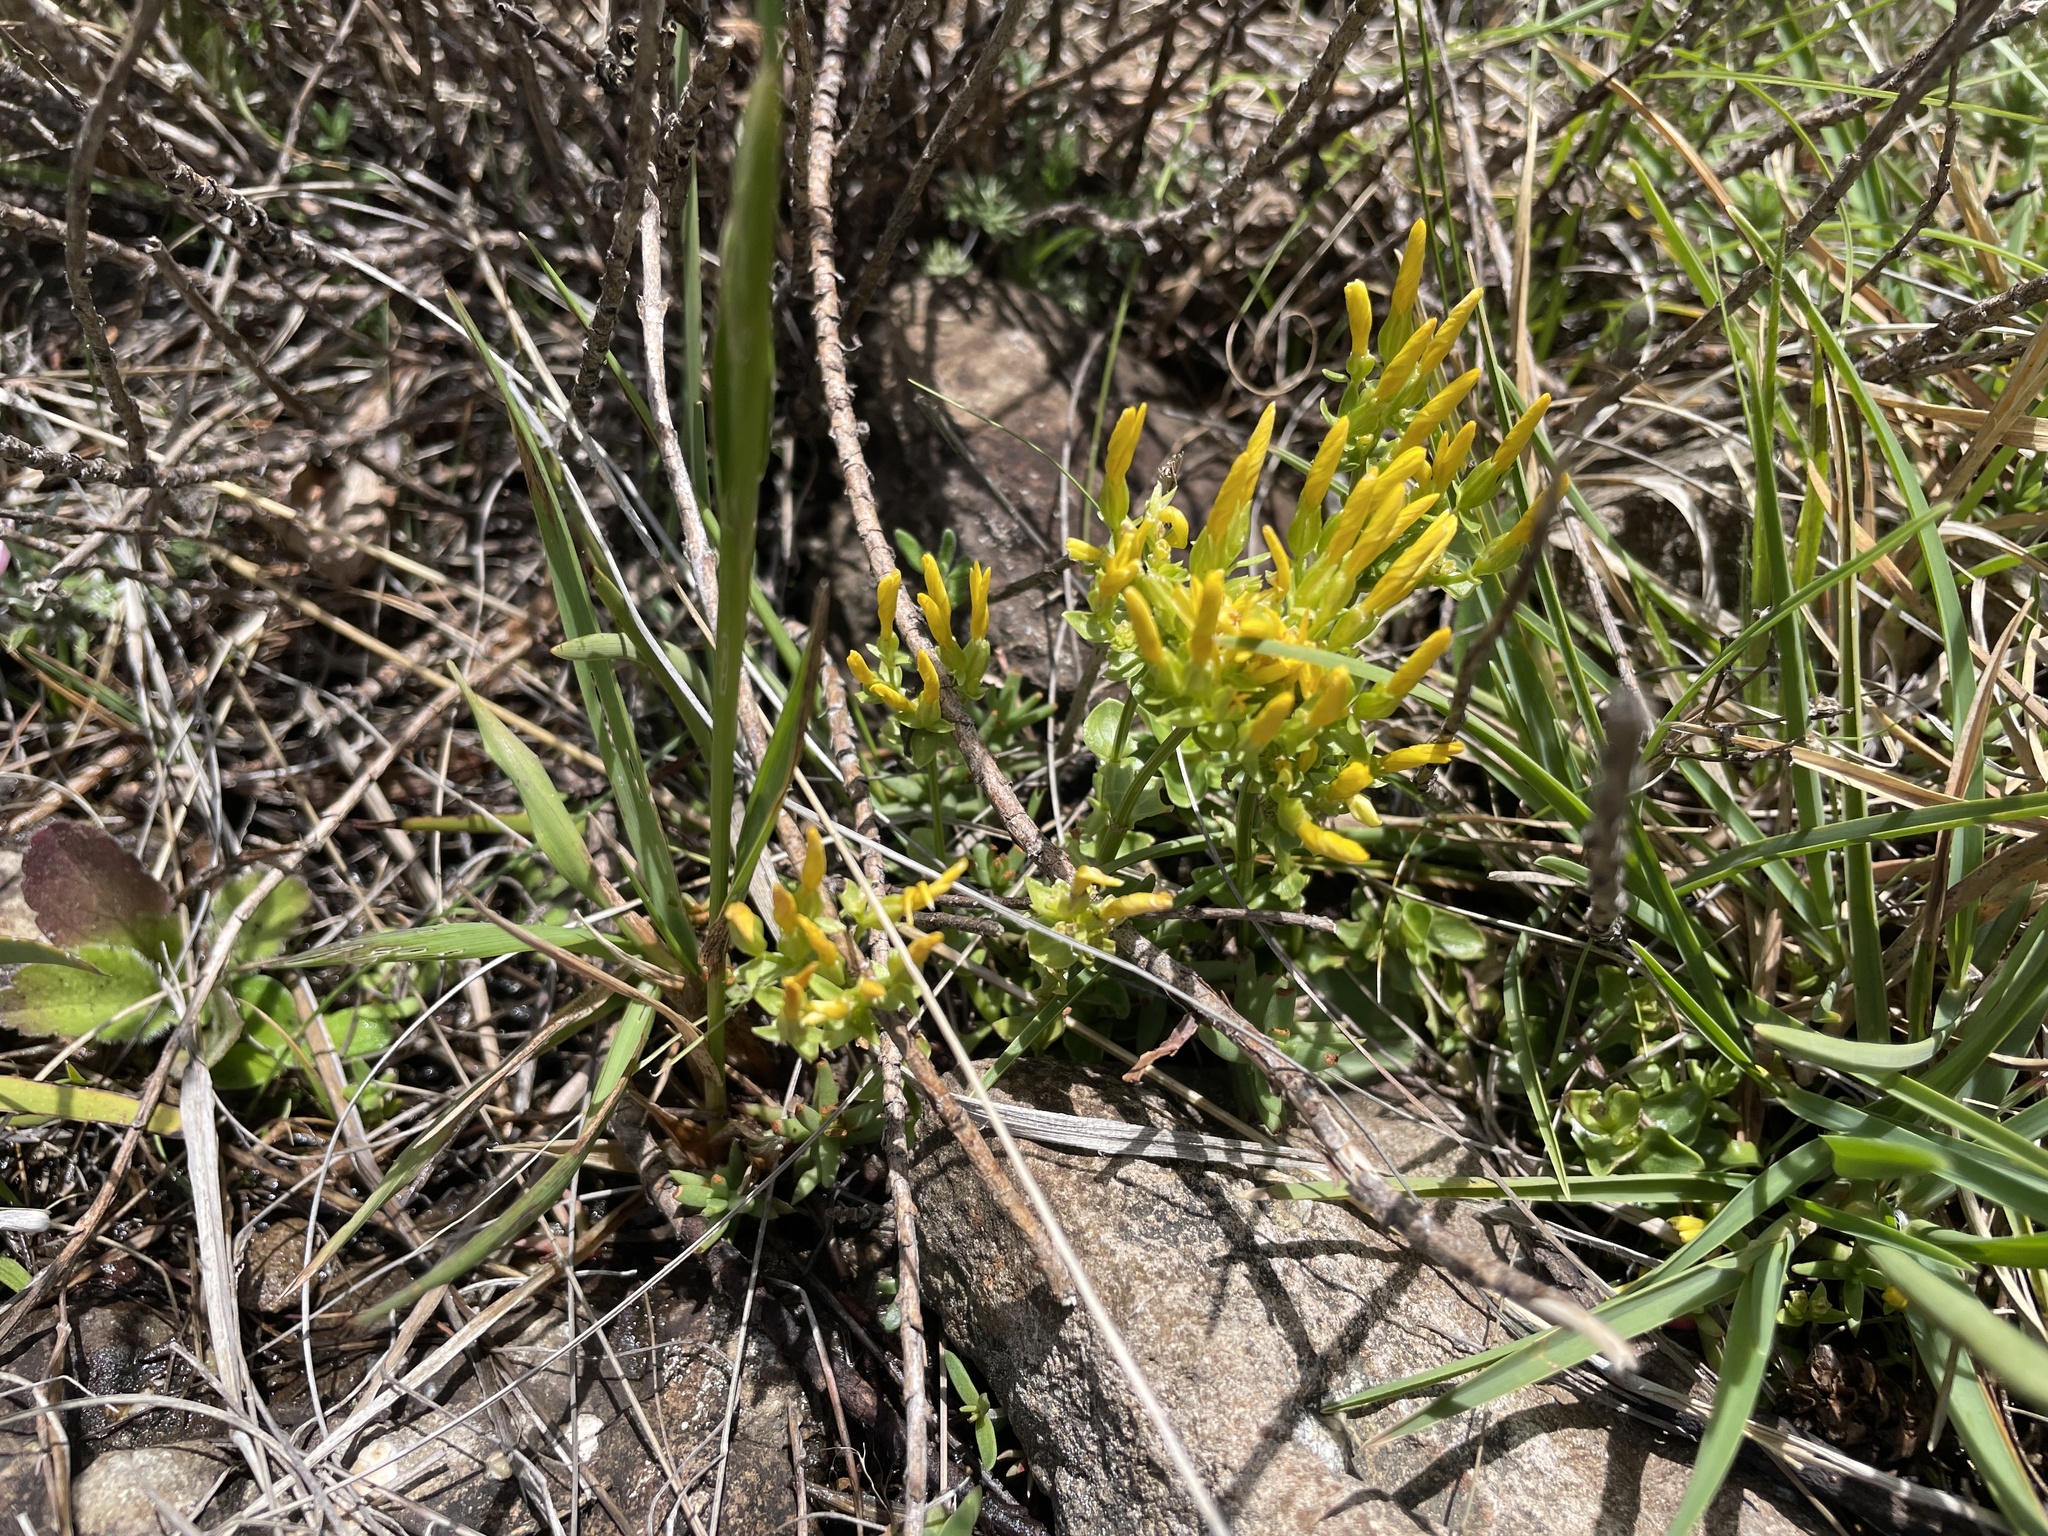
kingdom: Plantae
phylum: Tracheophyta
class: Magnoliopsida
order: Gentianales
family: Gentianaceae
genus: Sebaea
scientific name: Sebaea natalensis
